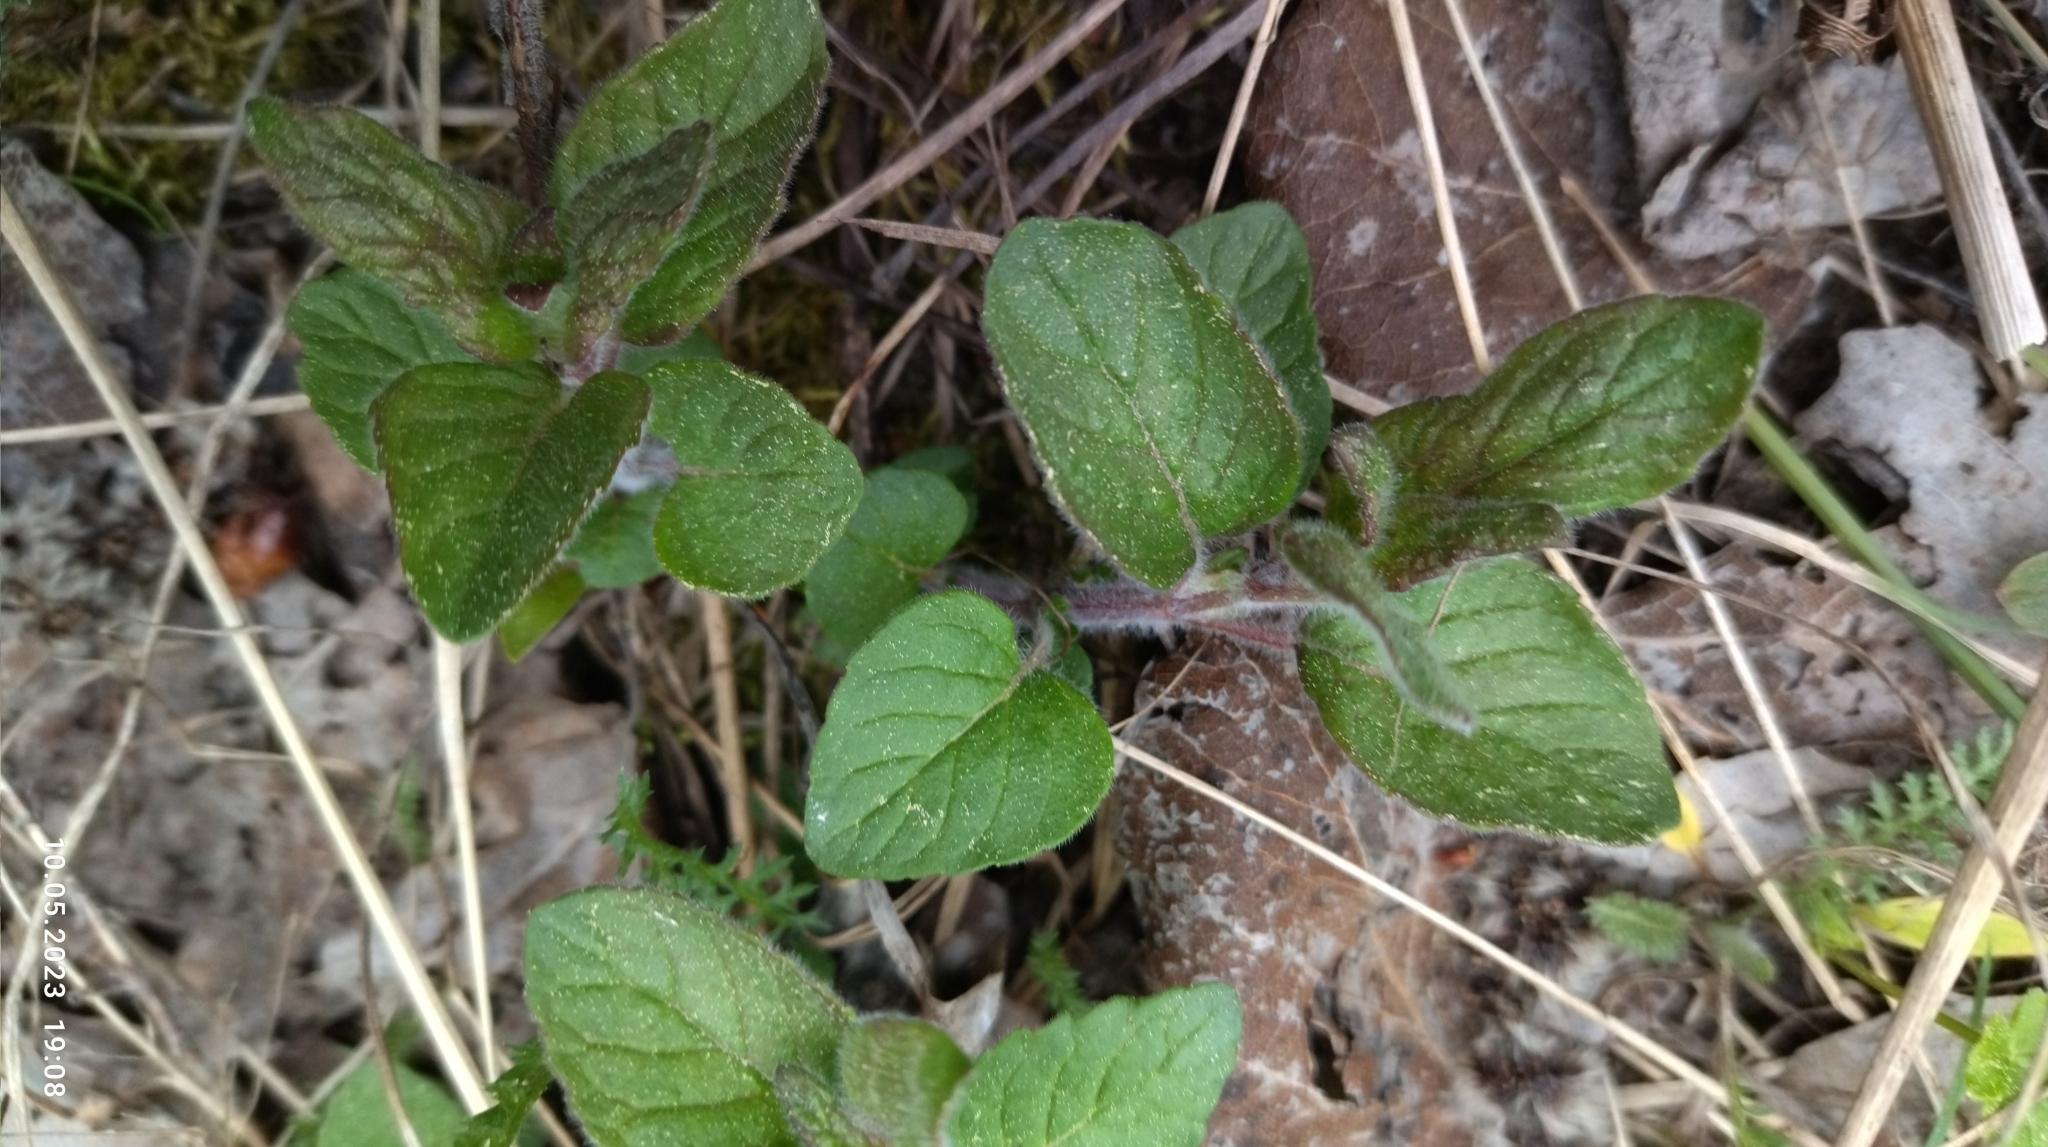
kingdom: Plantae
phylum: Tracheophyta
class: Magnoliopsida
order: Lamiales
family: Lamiaceae
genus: Clinopodium
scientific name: Clinopodium vulgare
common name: Wild basil
